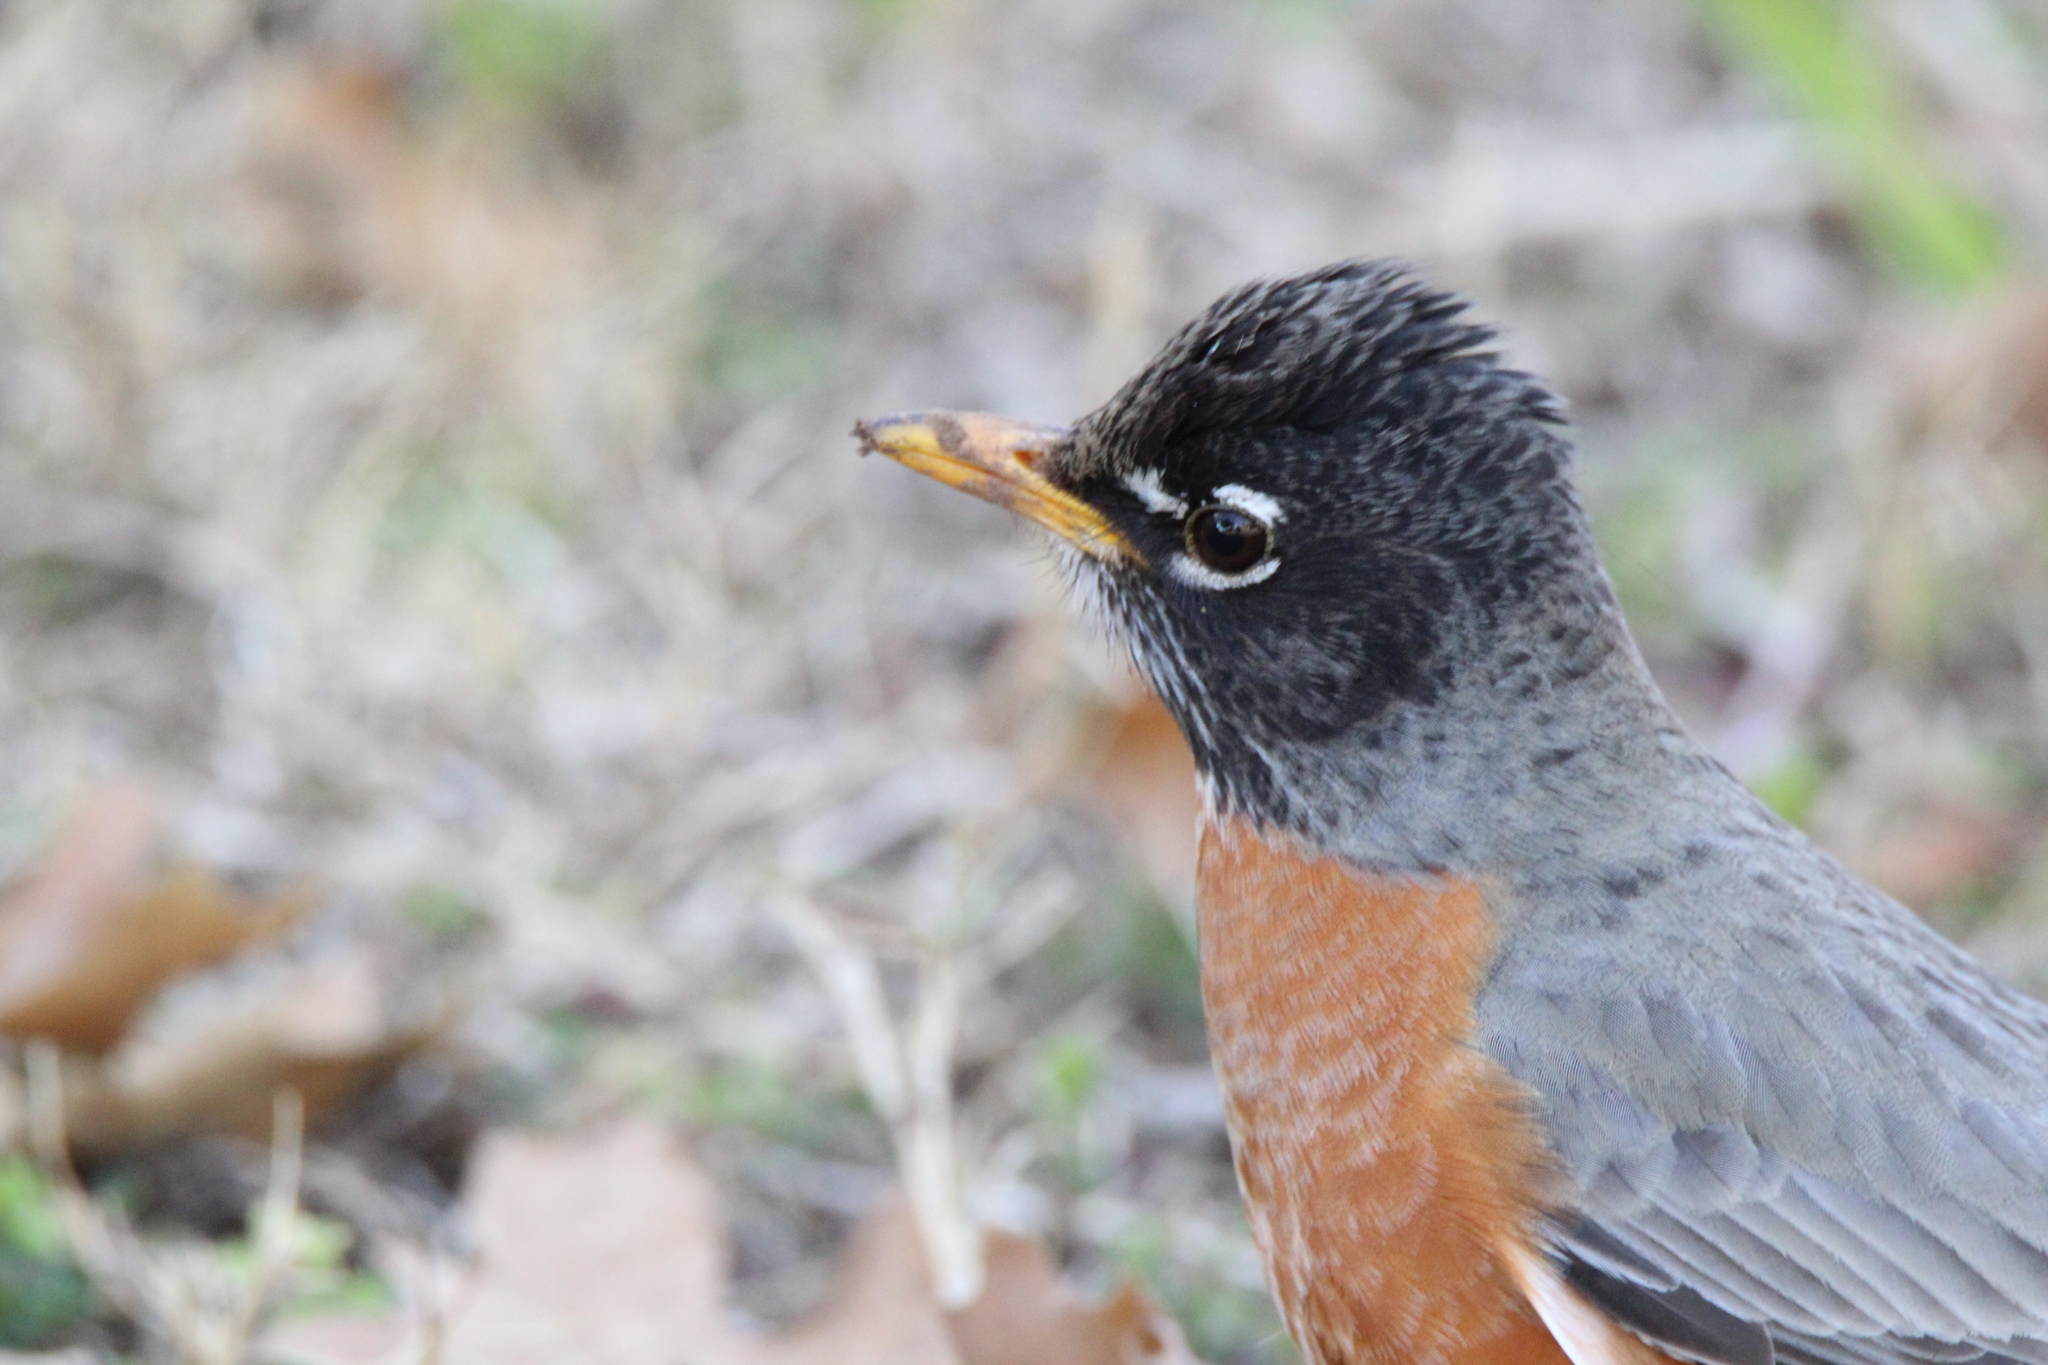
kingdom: Animalia
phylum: Chordata
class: Aves
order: Passeriformes
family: Turdidae
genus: Turdus
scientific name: Turdus migratorius
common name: American robin
